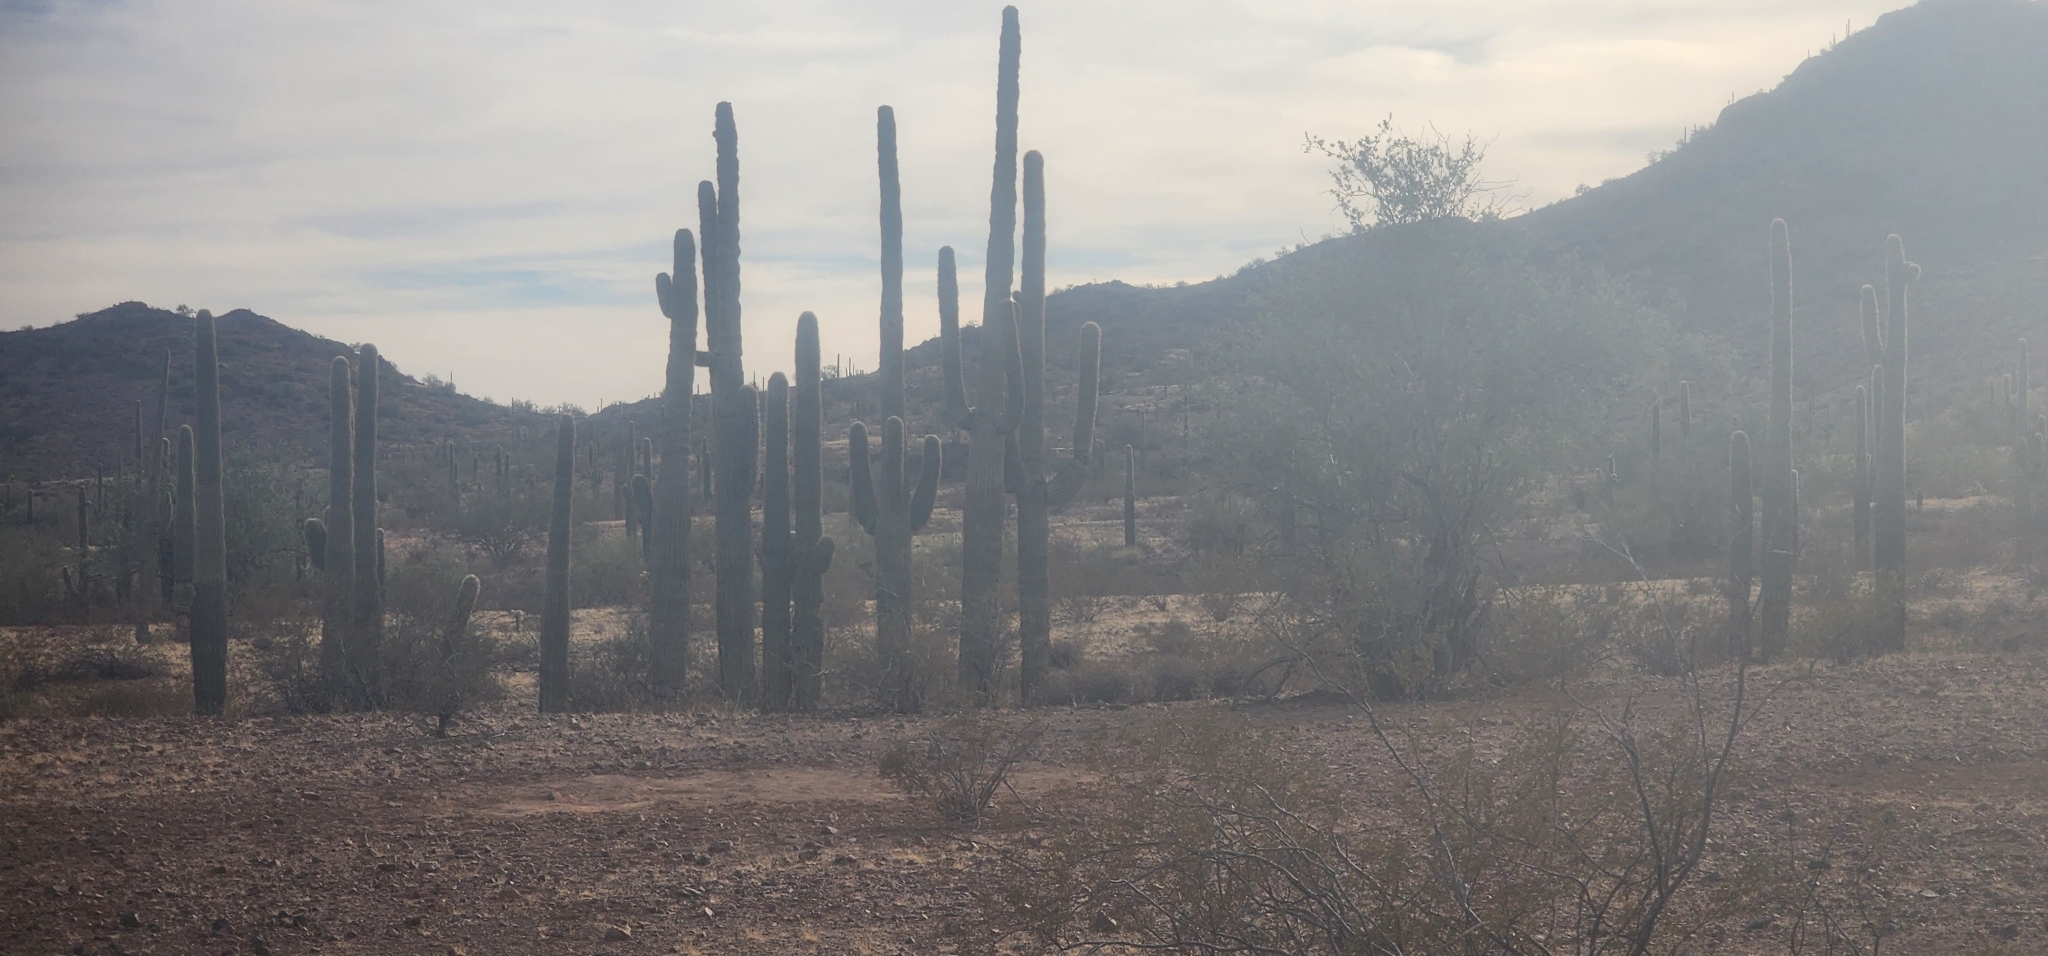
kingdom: Plantae
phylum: Tracheophyta
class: Magnoliopsida
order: Caryophyllales
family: Cactaceae
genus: Carnegiea
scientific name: Carnegiea gigantea
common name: Saguaro
